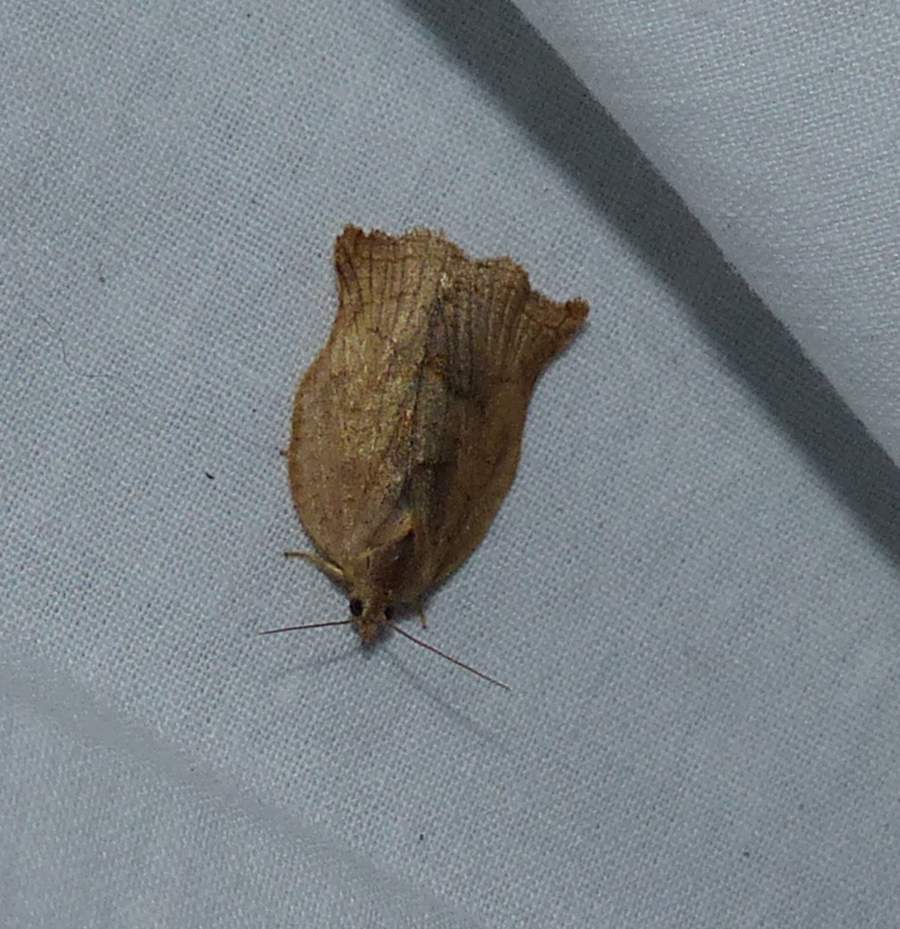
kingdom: Animalia
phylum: Arthropoda
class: Insecta
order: Lepidoptera
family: Tortricidae
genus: Archips
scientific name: Archips purpurana
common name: Omnivorous leafroller
